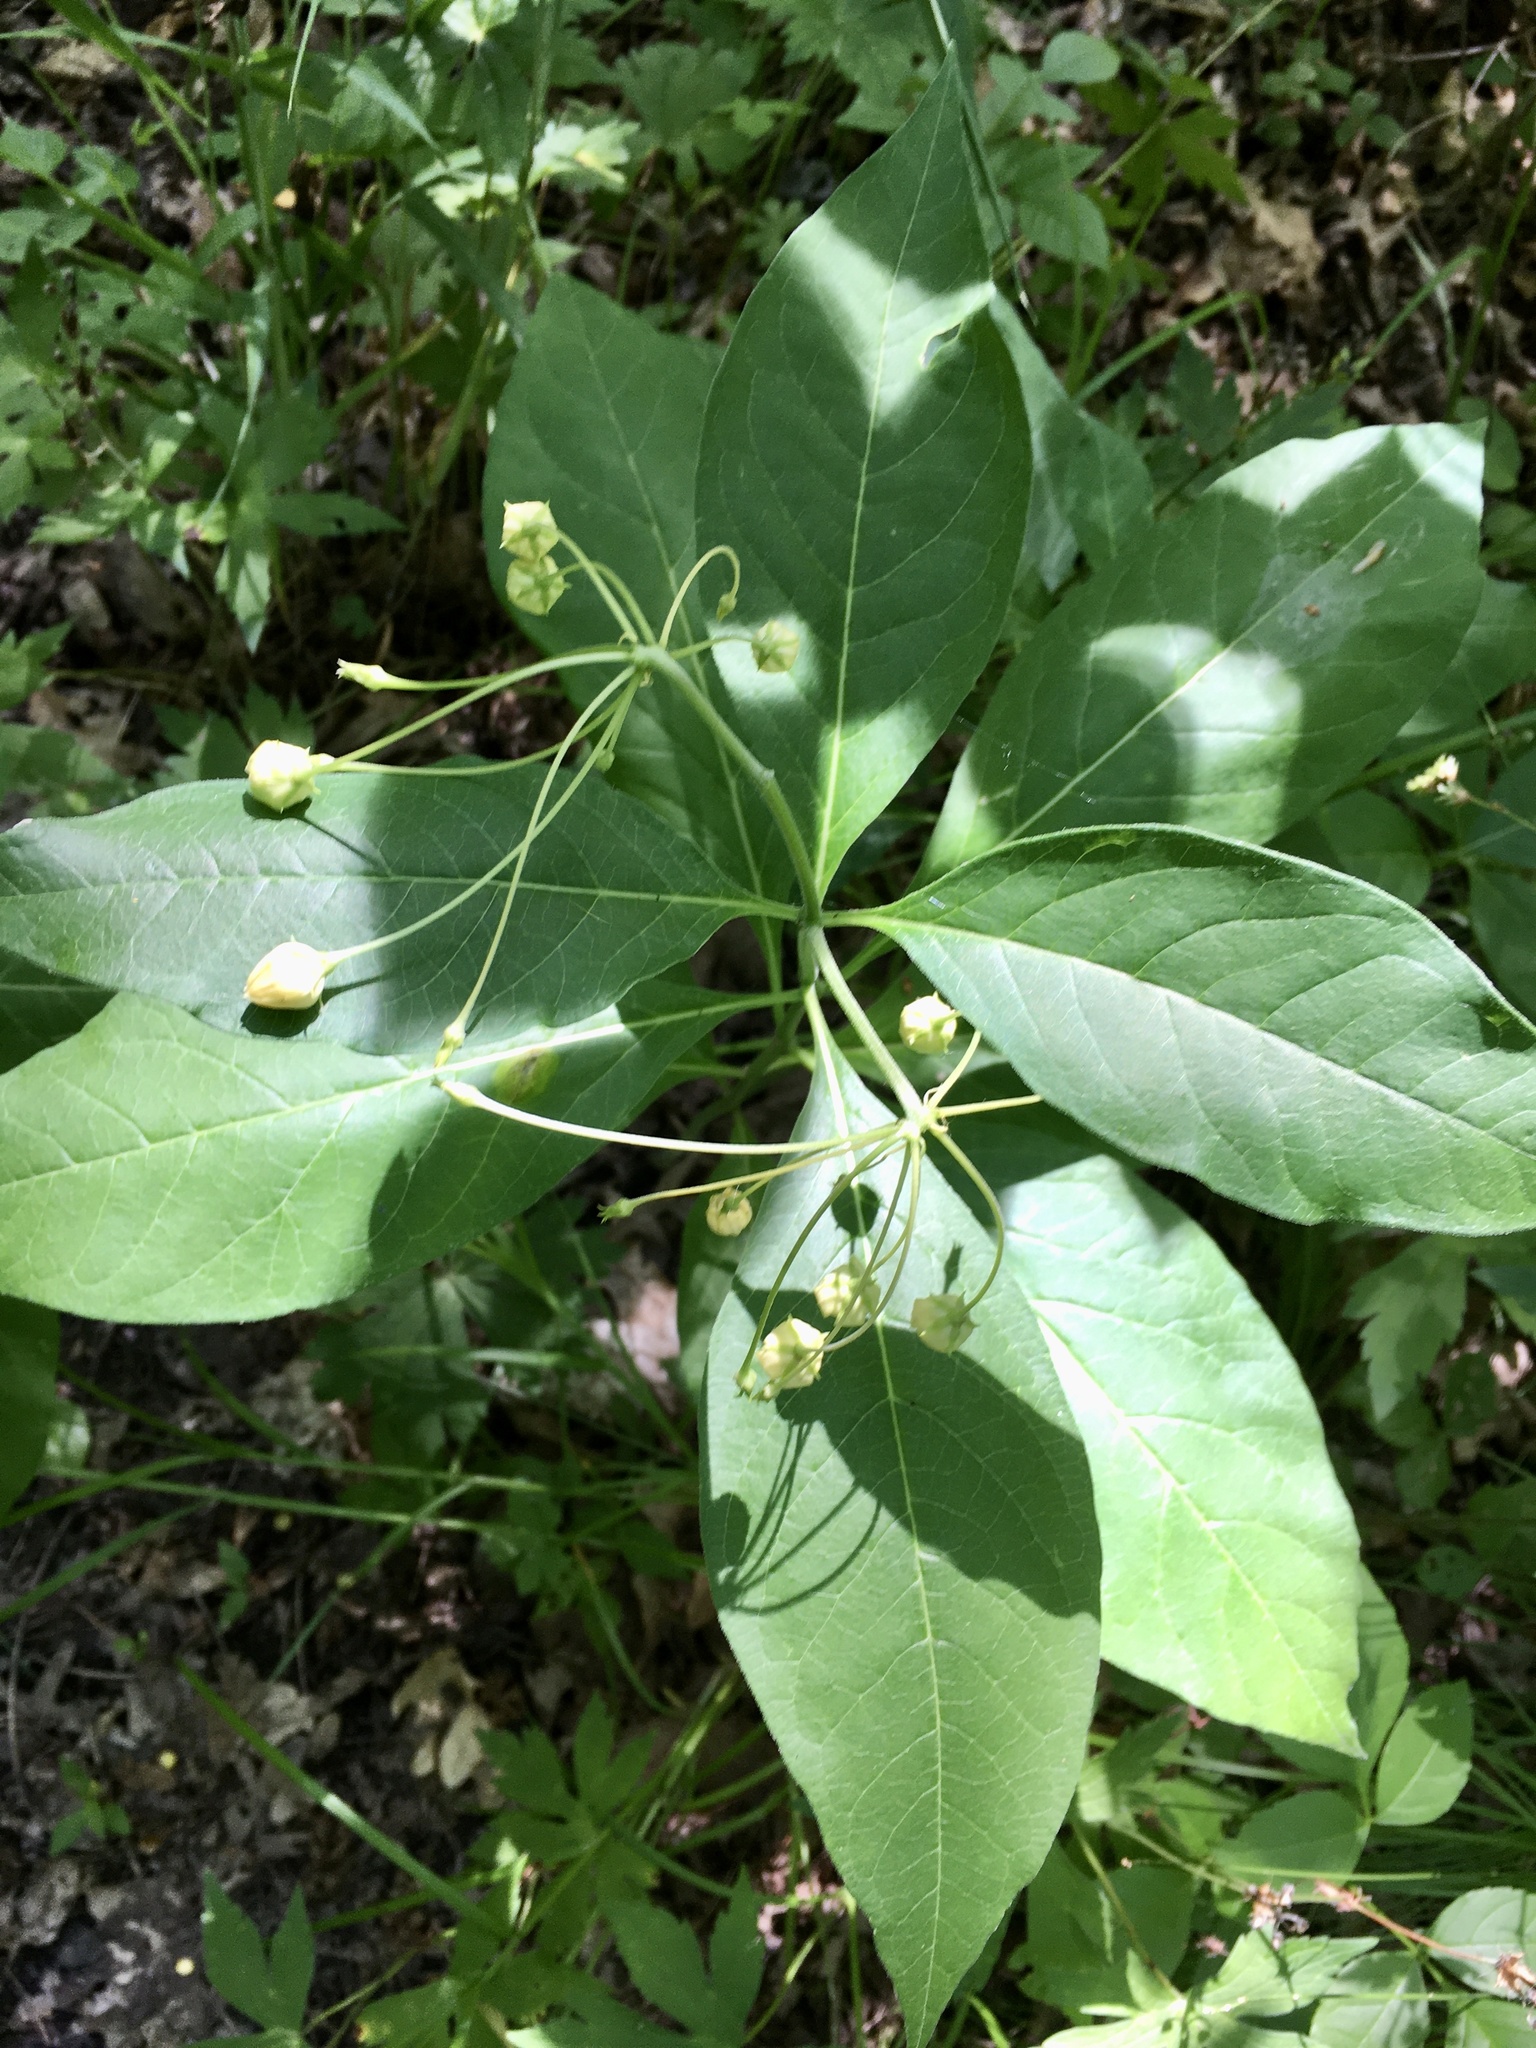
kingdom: Plantae
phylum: Tracheophyta
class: Magnoliopsida
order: Gentianales
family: Apocynaceae
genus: Asclepias
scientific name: Asclepias exaltata
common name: Poke milkweed
